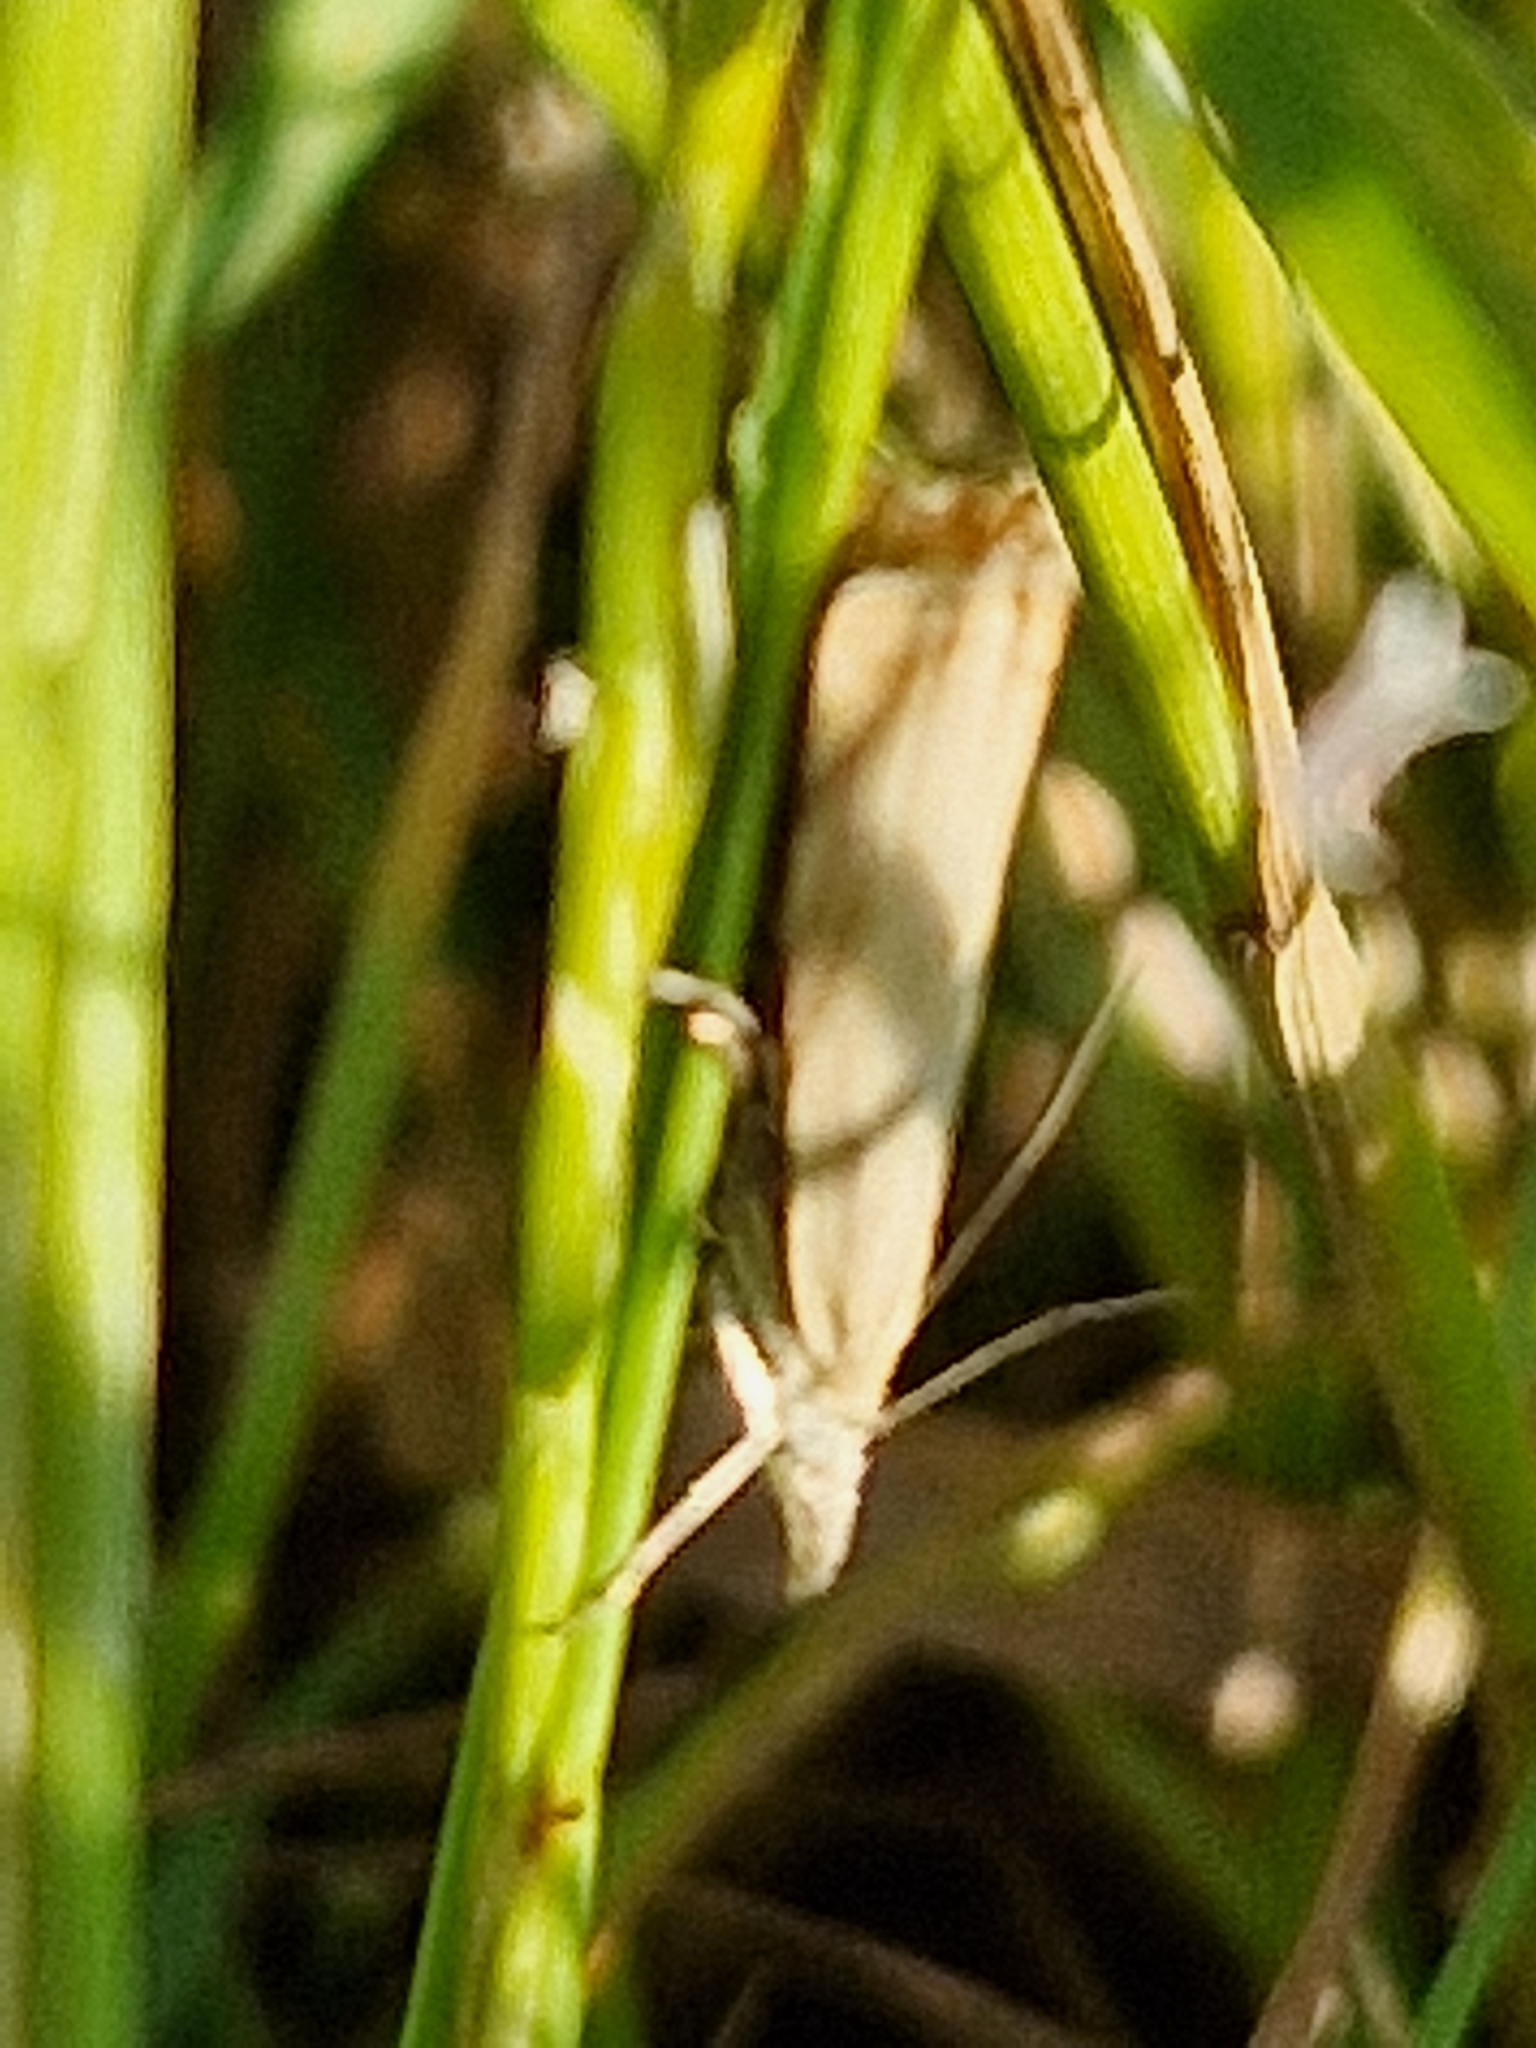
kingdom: Animalia
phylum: Arthropoda
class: Insecta
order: Lepidoptera
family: Crambidae
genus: Chrysoteuchia
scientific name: Chrysoteuchia culmella
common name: Garden grass-veneer
